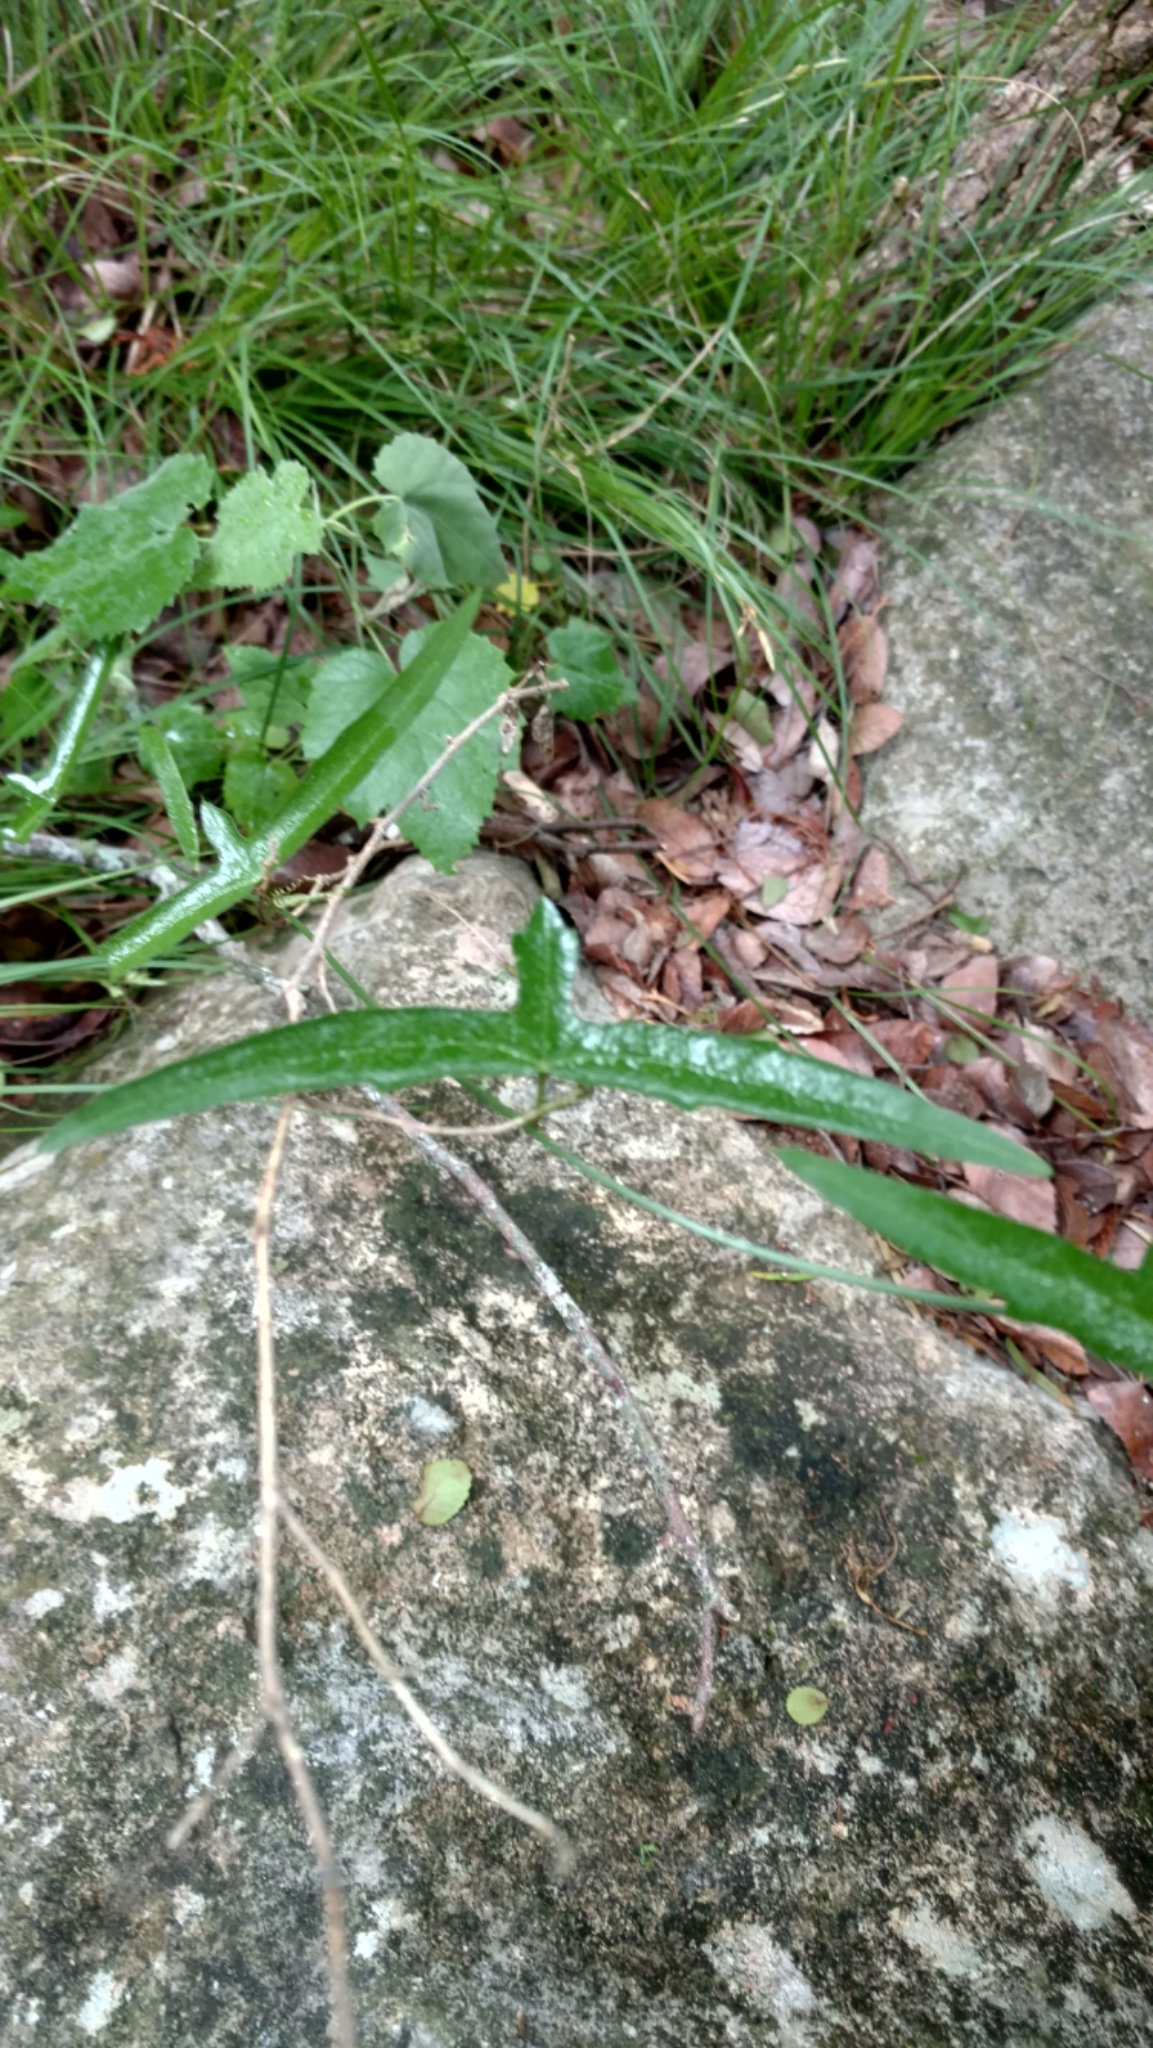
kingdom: Plantae
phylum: Tracheophyta
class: Magnoliopsida
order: Malpighiales
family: Passifloraceae
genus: Passiflora
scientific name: Passiflora tenuiloba
